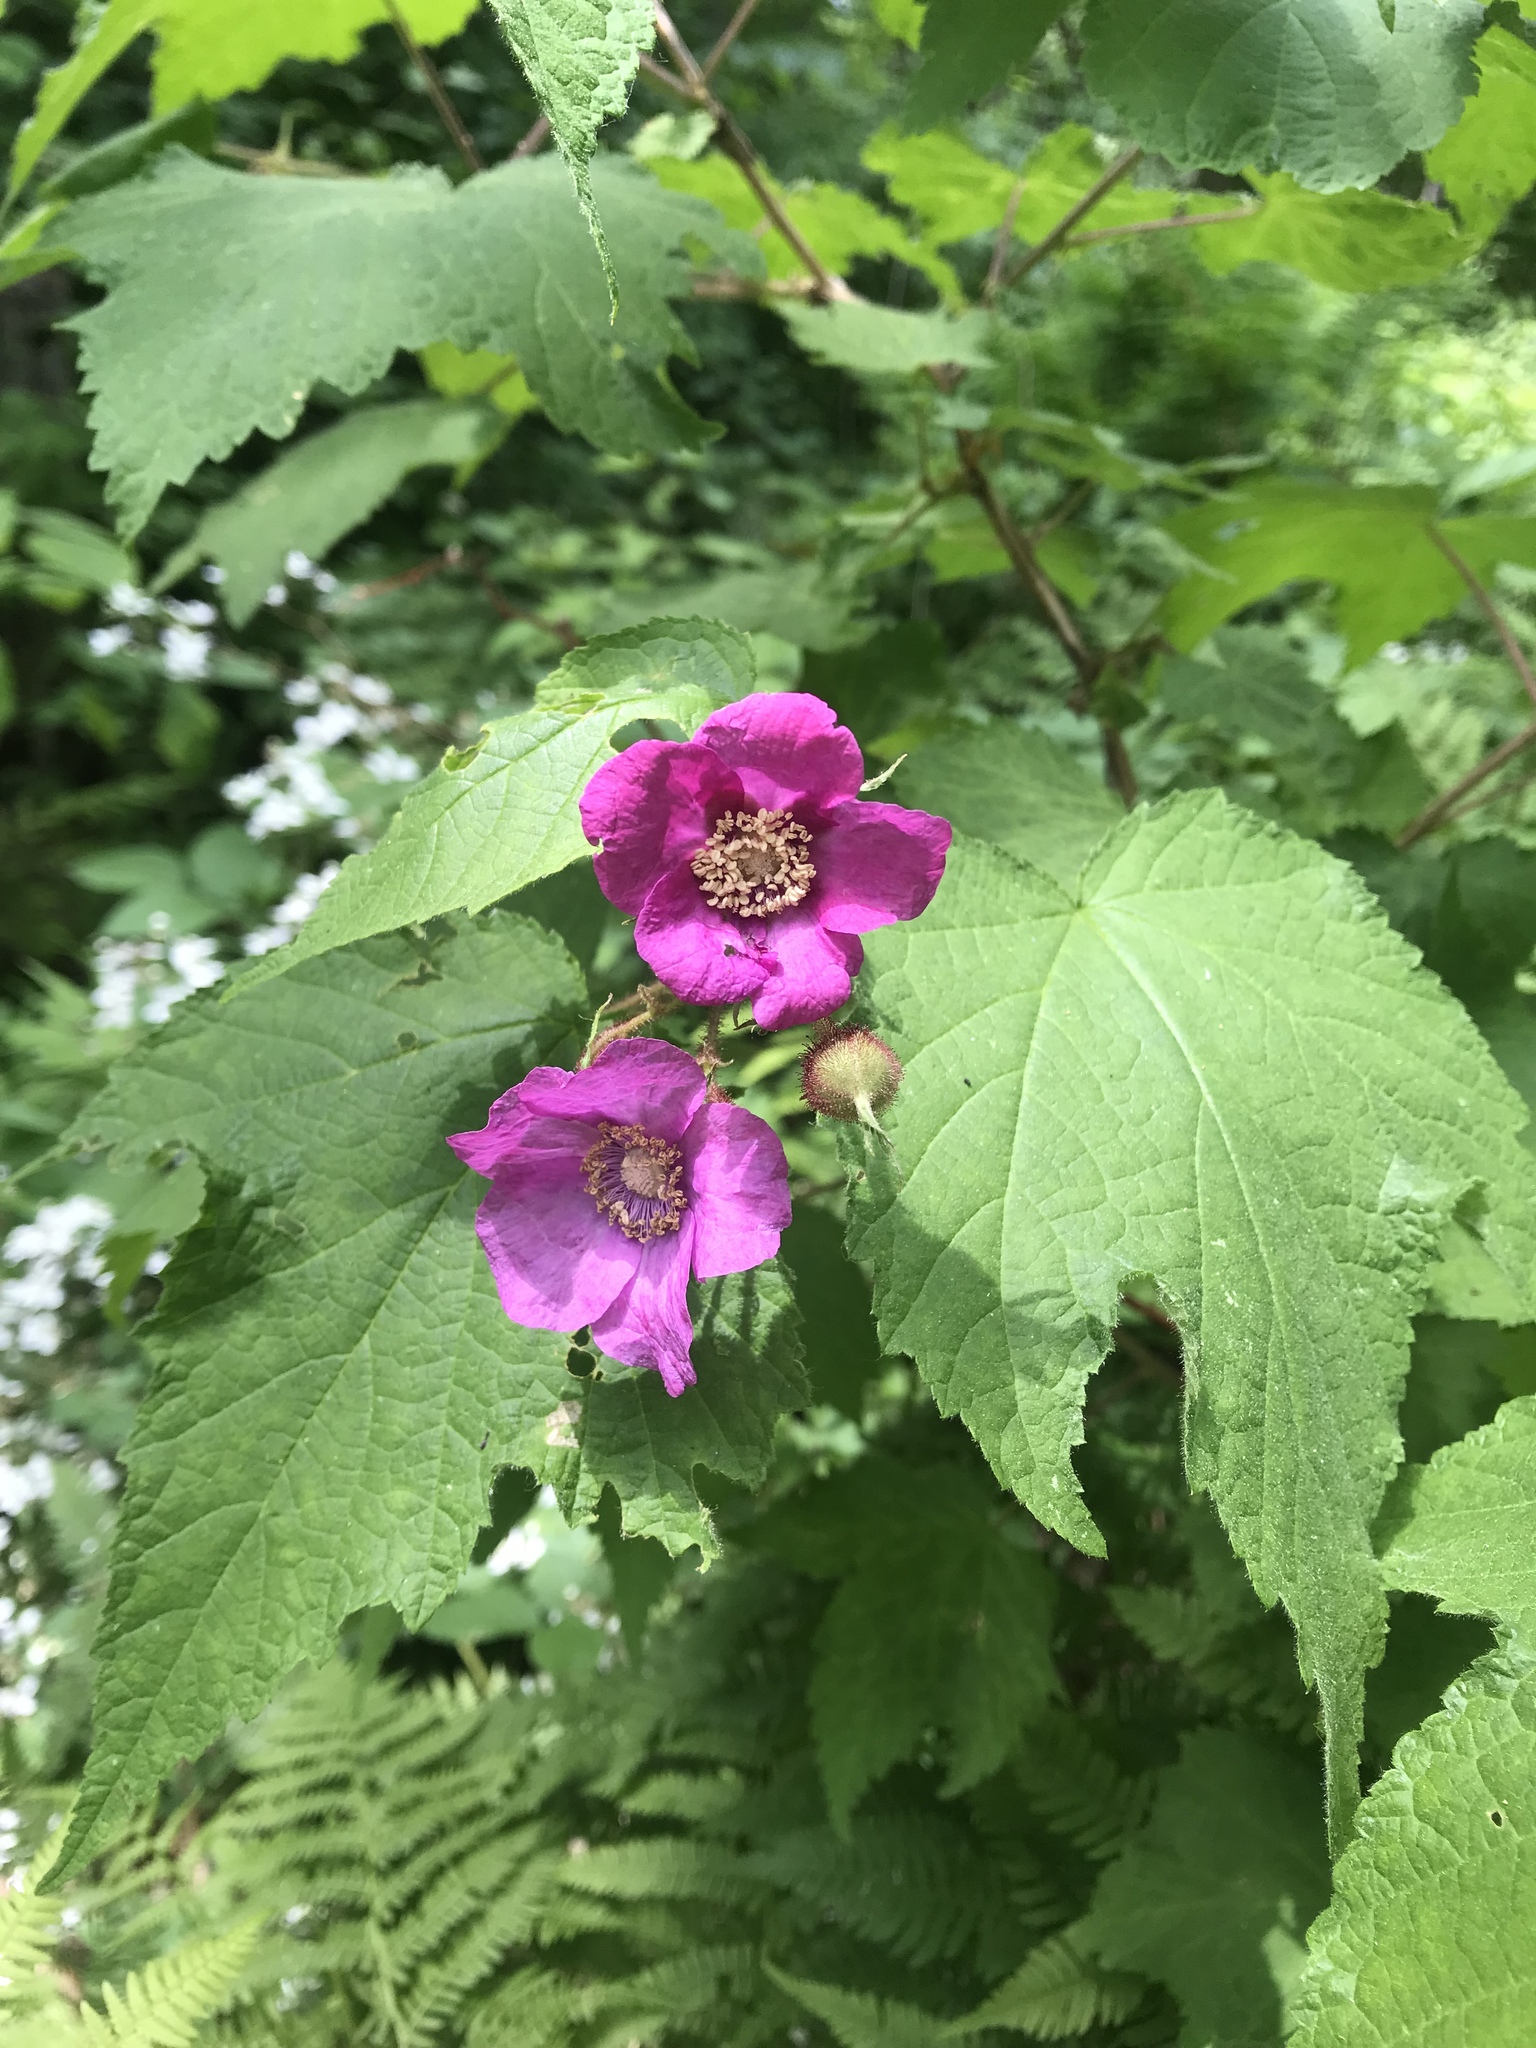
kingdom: Plantae
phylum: Tracheophyta
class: Magnoliopsida
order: Rosales
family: Rosaceae
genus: Rubus
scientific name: Rubus odoratus
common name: Purple-flowered raspberry
